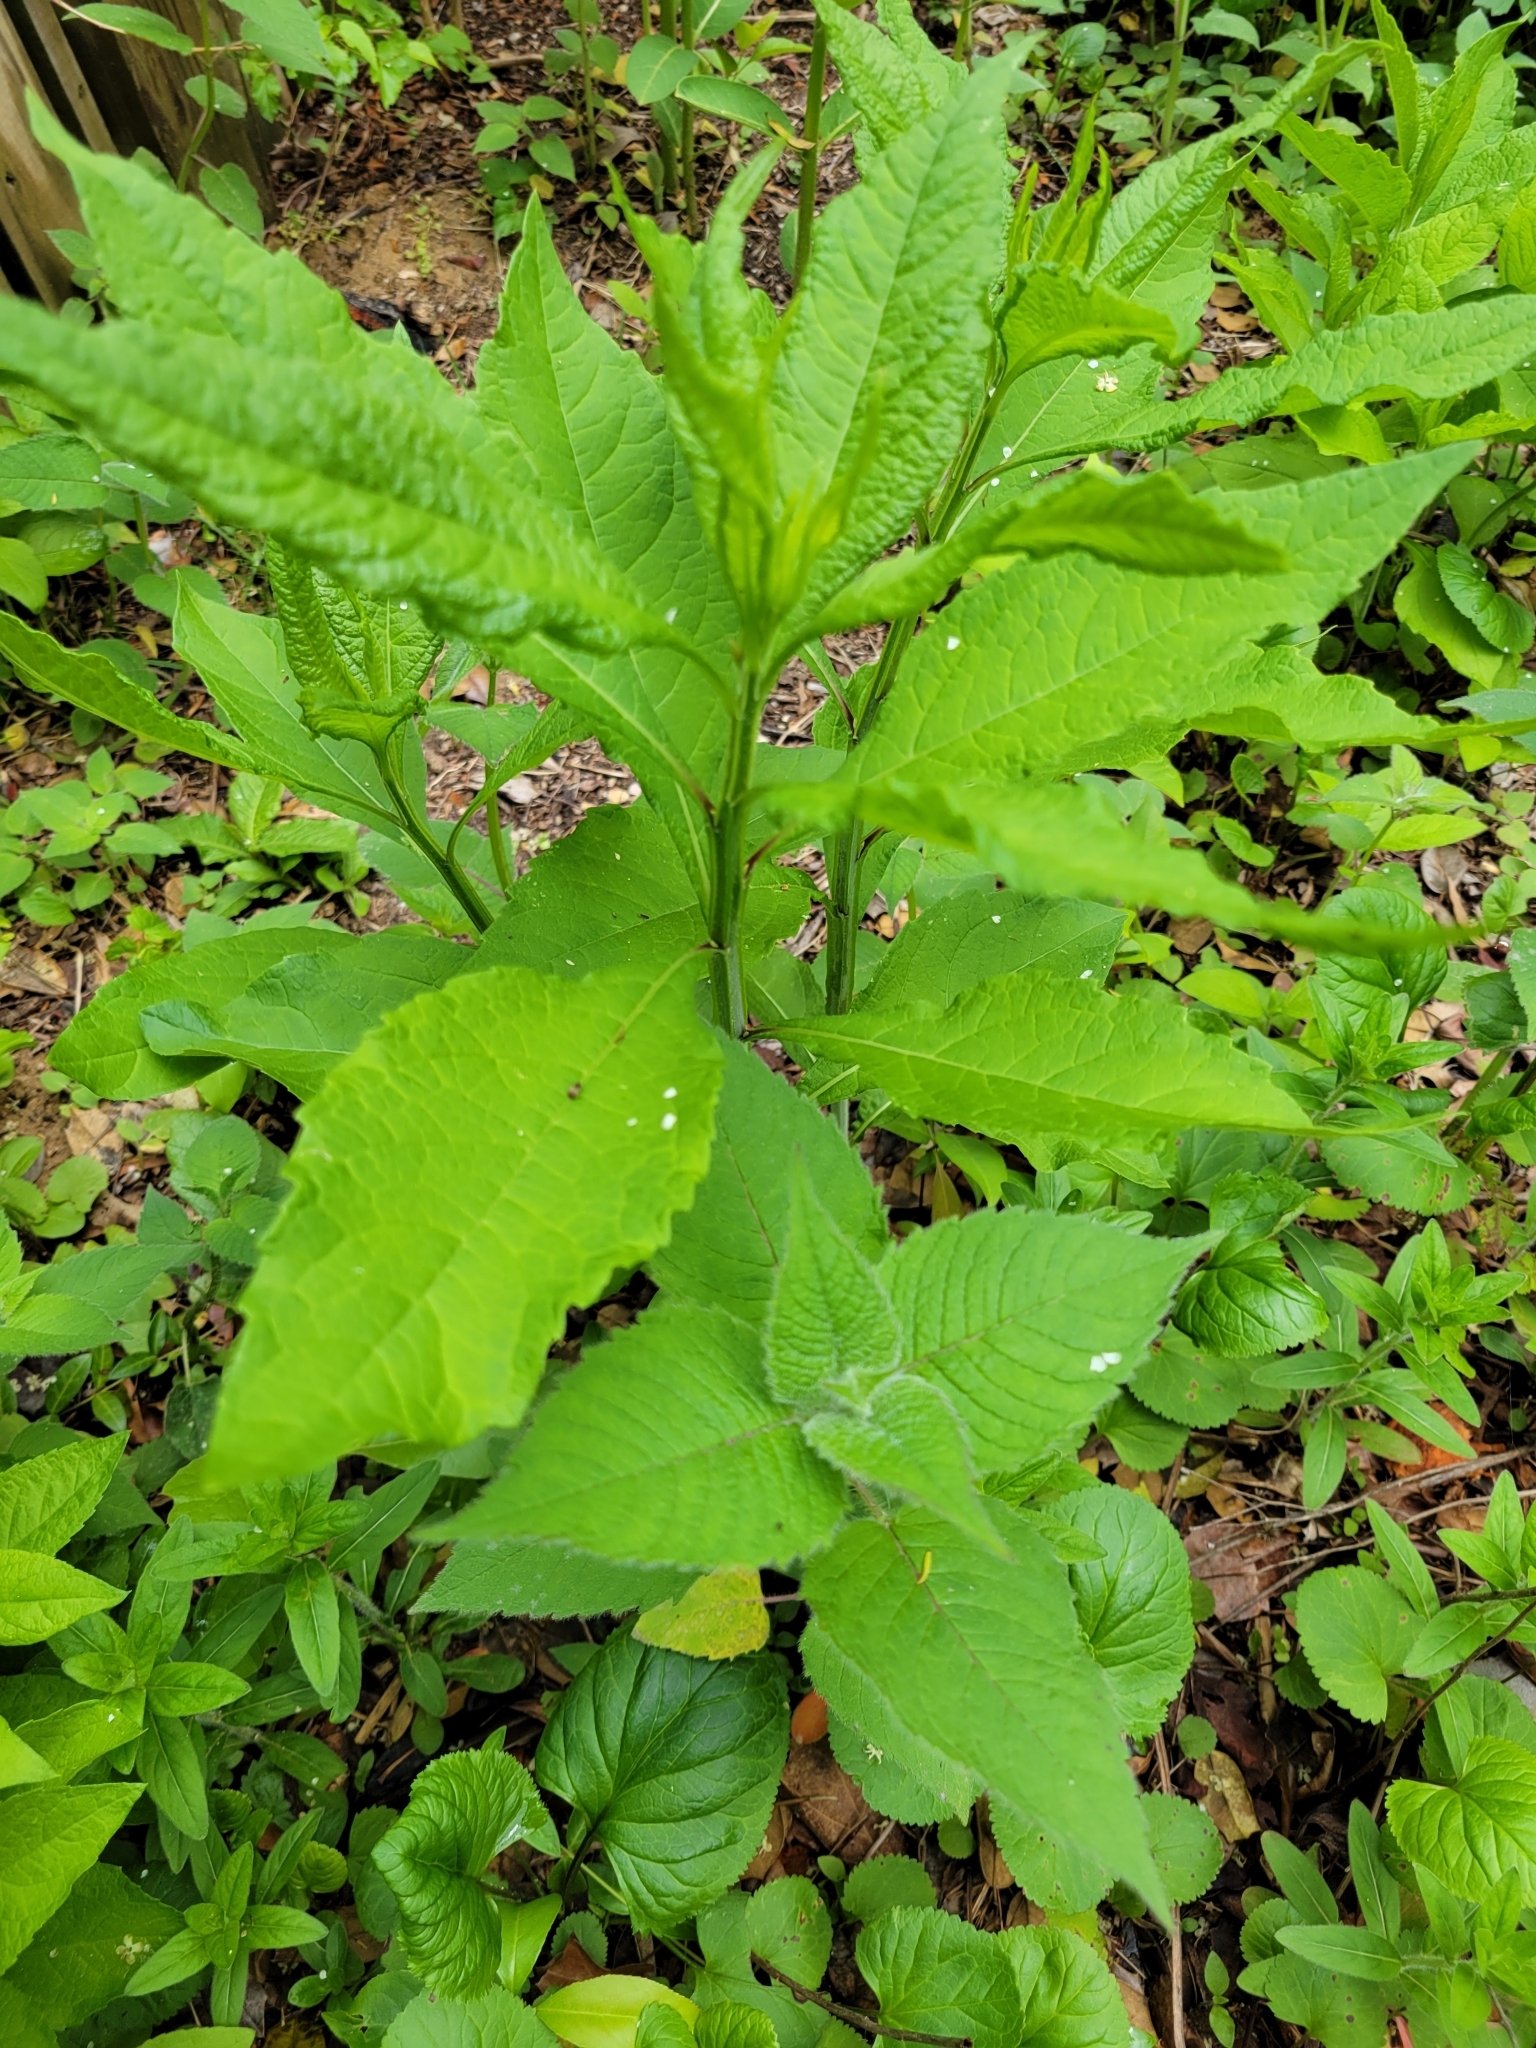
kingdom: Plantae
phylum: Tracheophyta
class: Magnoliopsida
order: Asterales
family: Asteraceae
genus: Verbesina
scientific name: Verbesina alternifolia
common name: Wingstem
